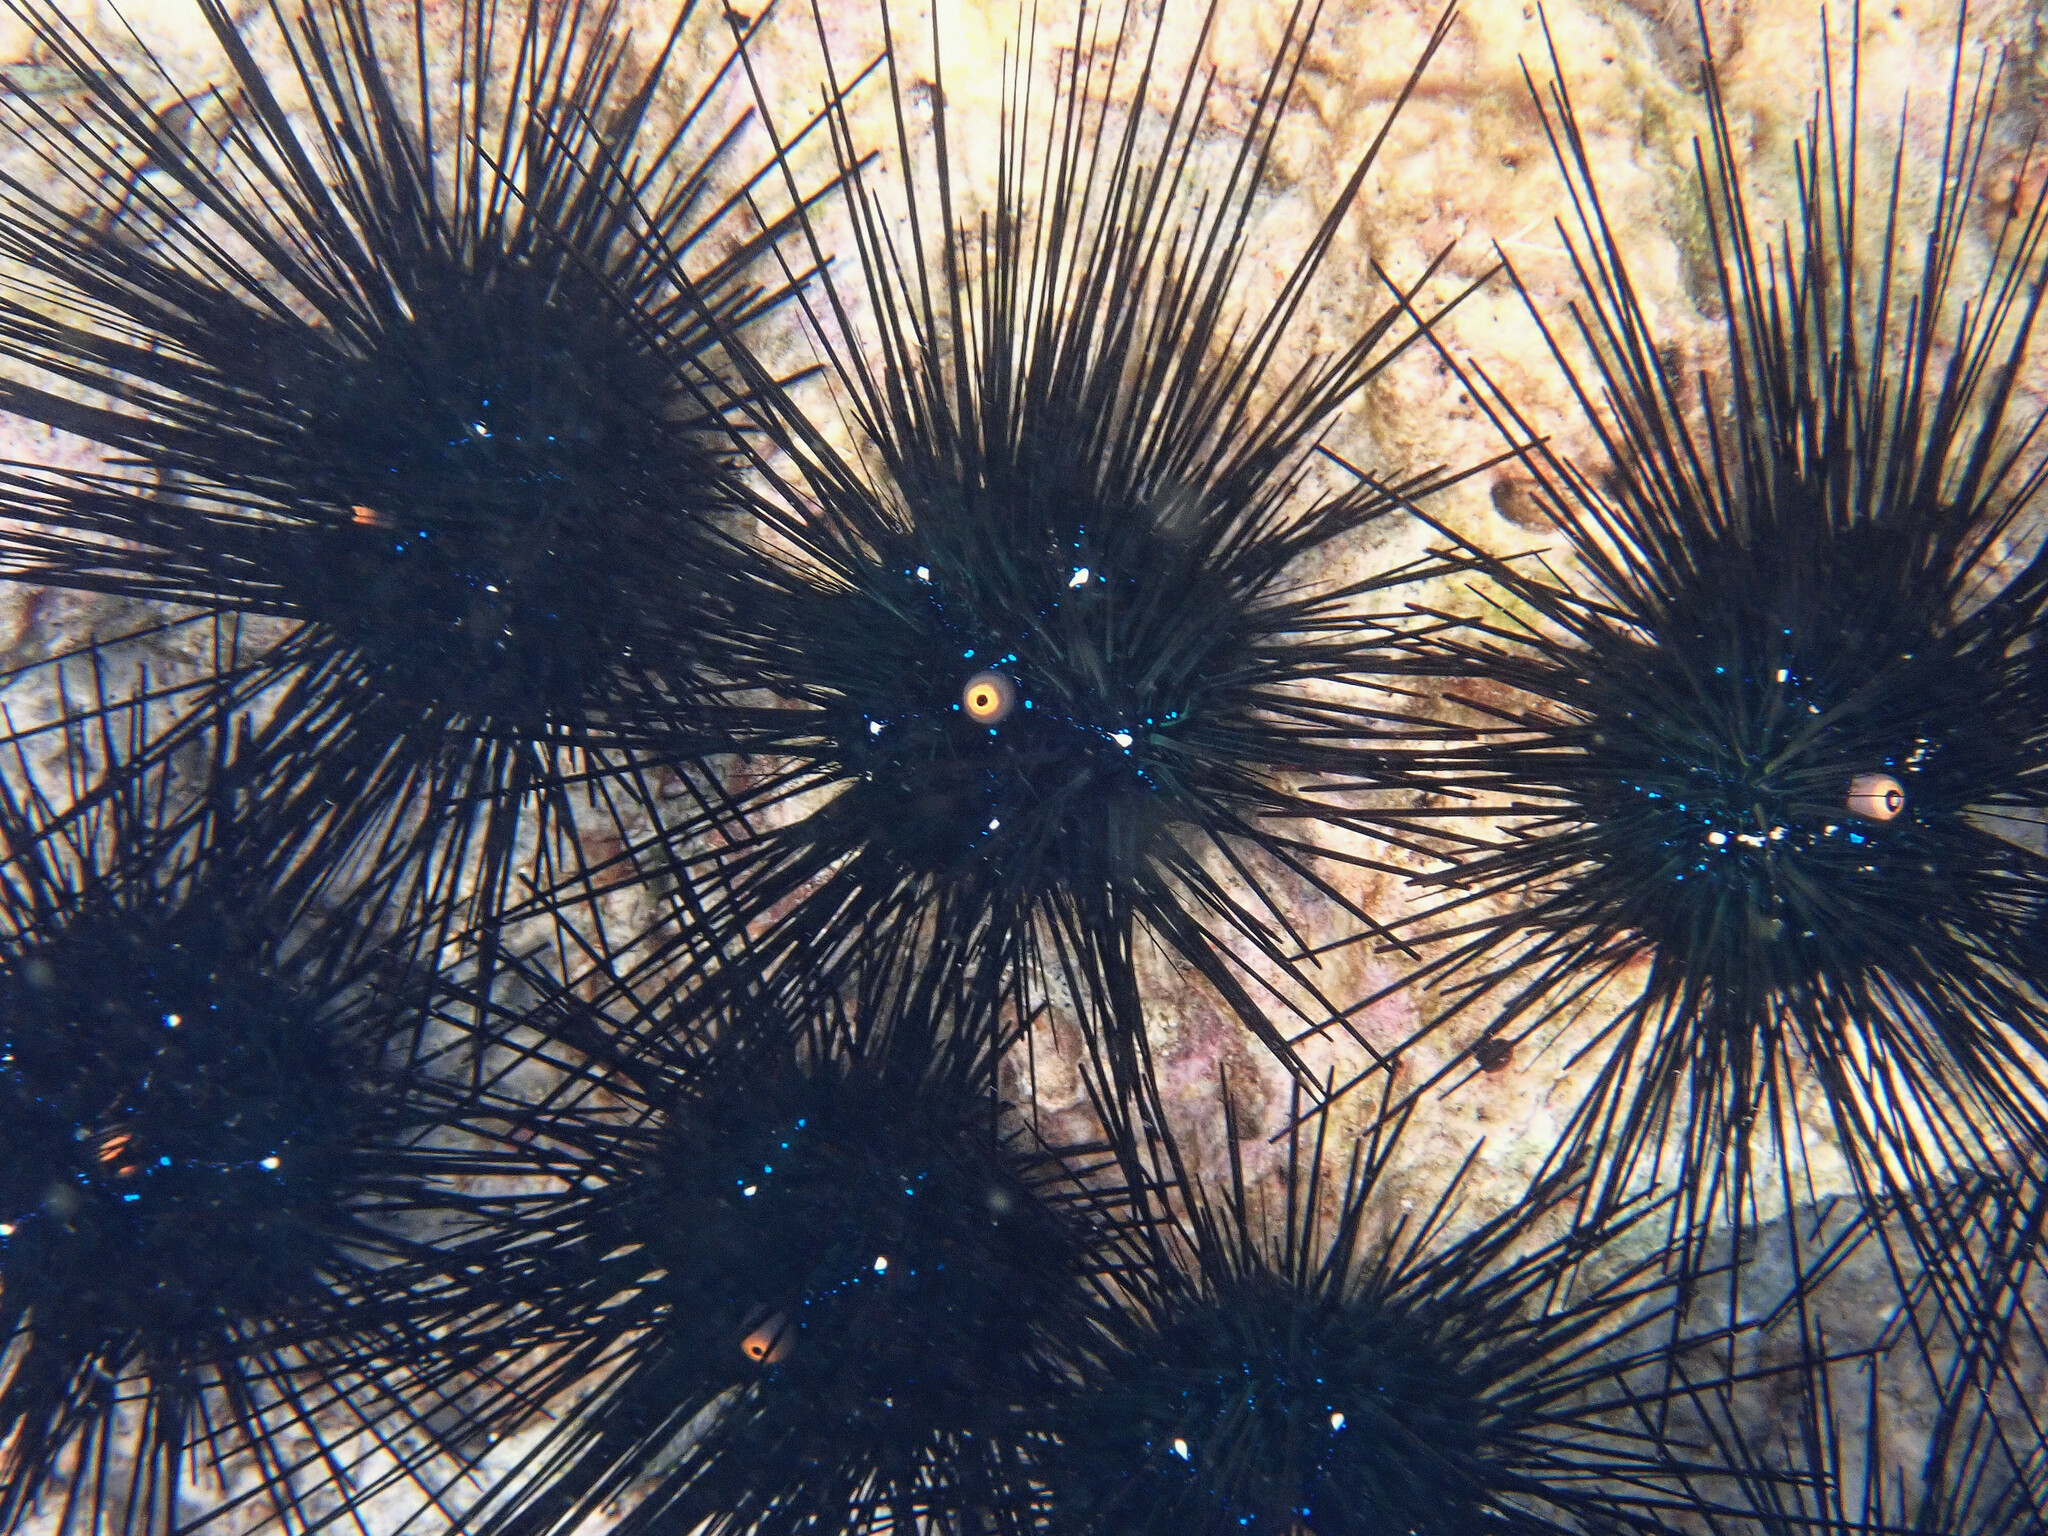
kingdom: Animalia
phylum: Echinodermata
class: Echinoidea
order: Diadematoida
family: Diadematidae
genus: Diadema
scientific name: Diadema setosum
